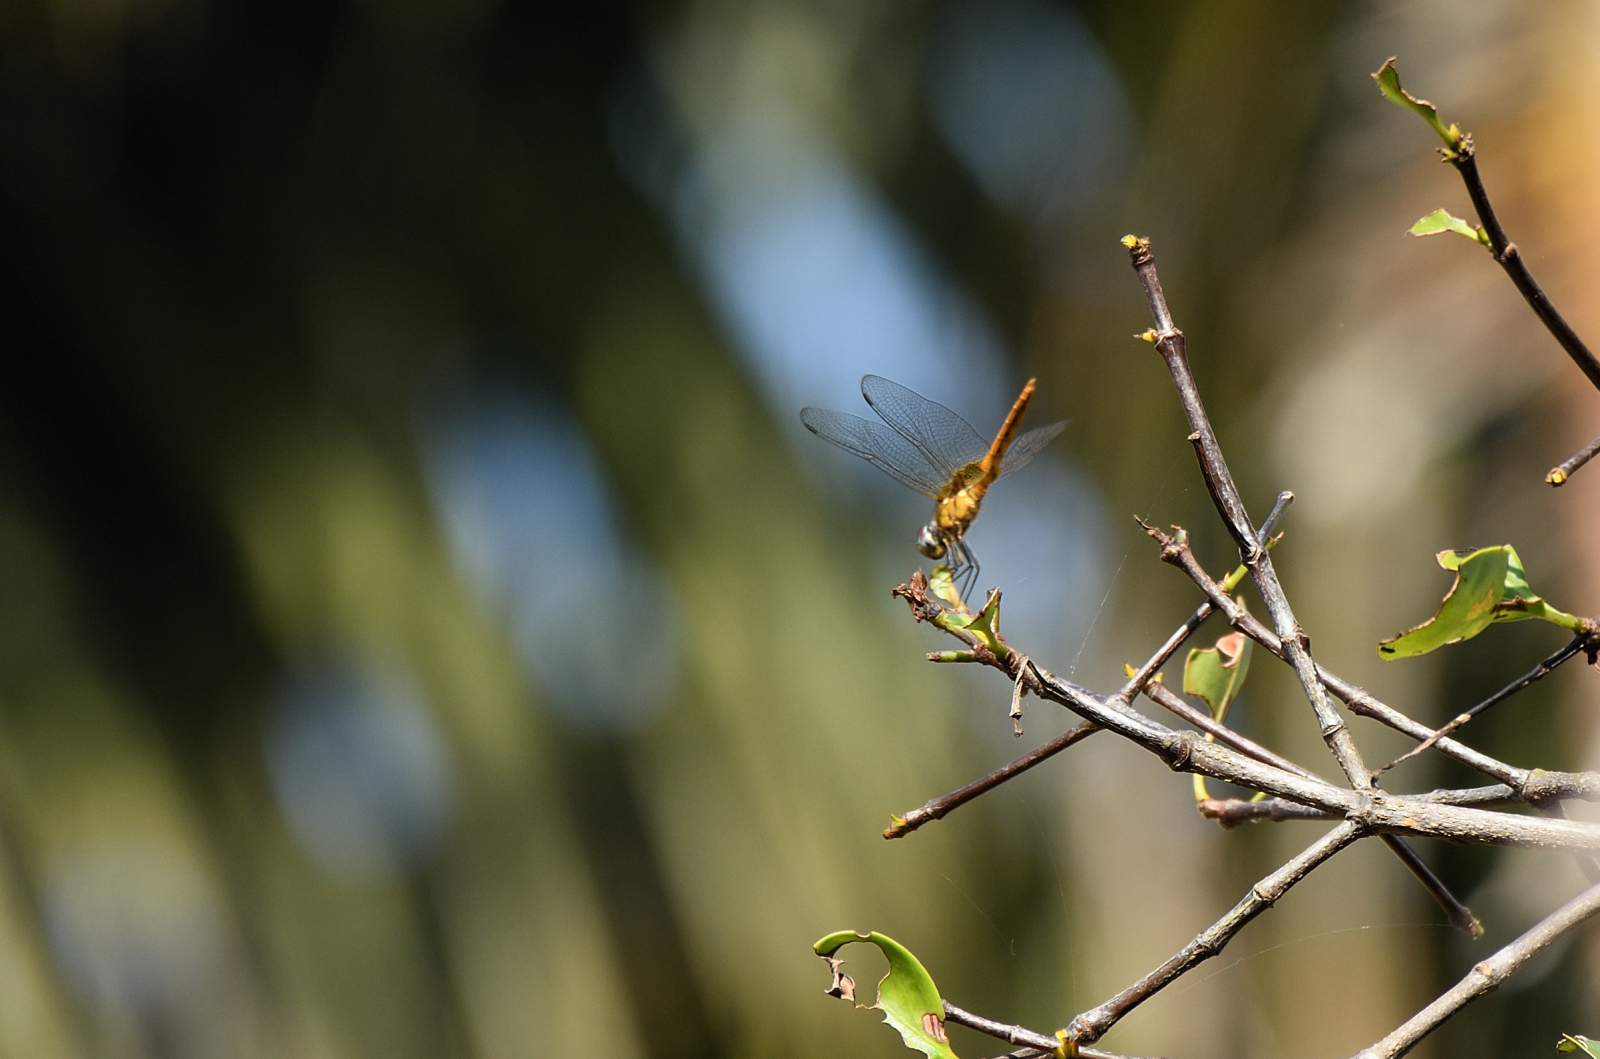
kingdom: Animalia
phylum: Arthropoda
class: Insecta
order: Odonata
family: Libellulidae
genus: Urothemis
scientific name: Urothemis signata
